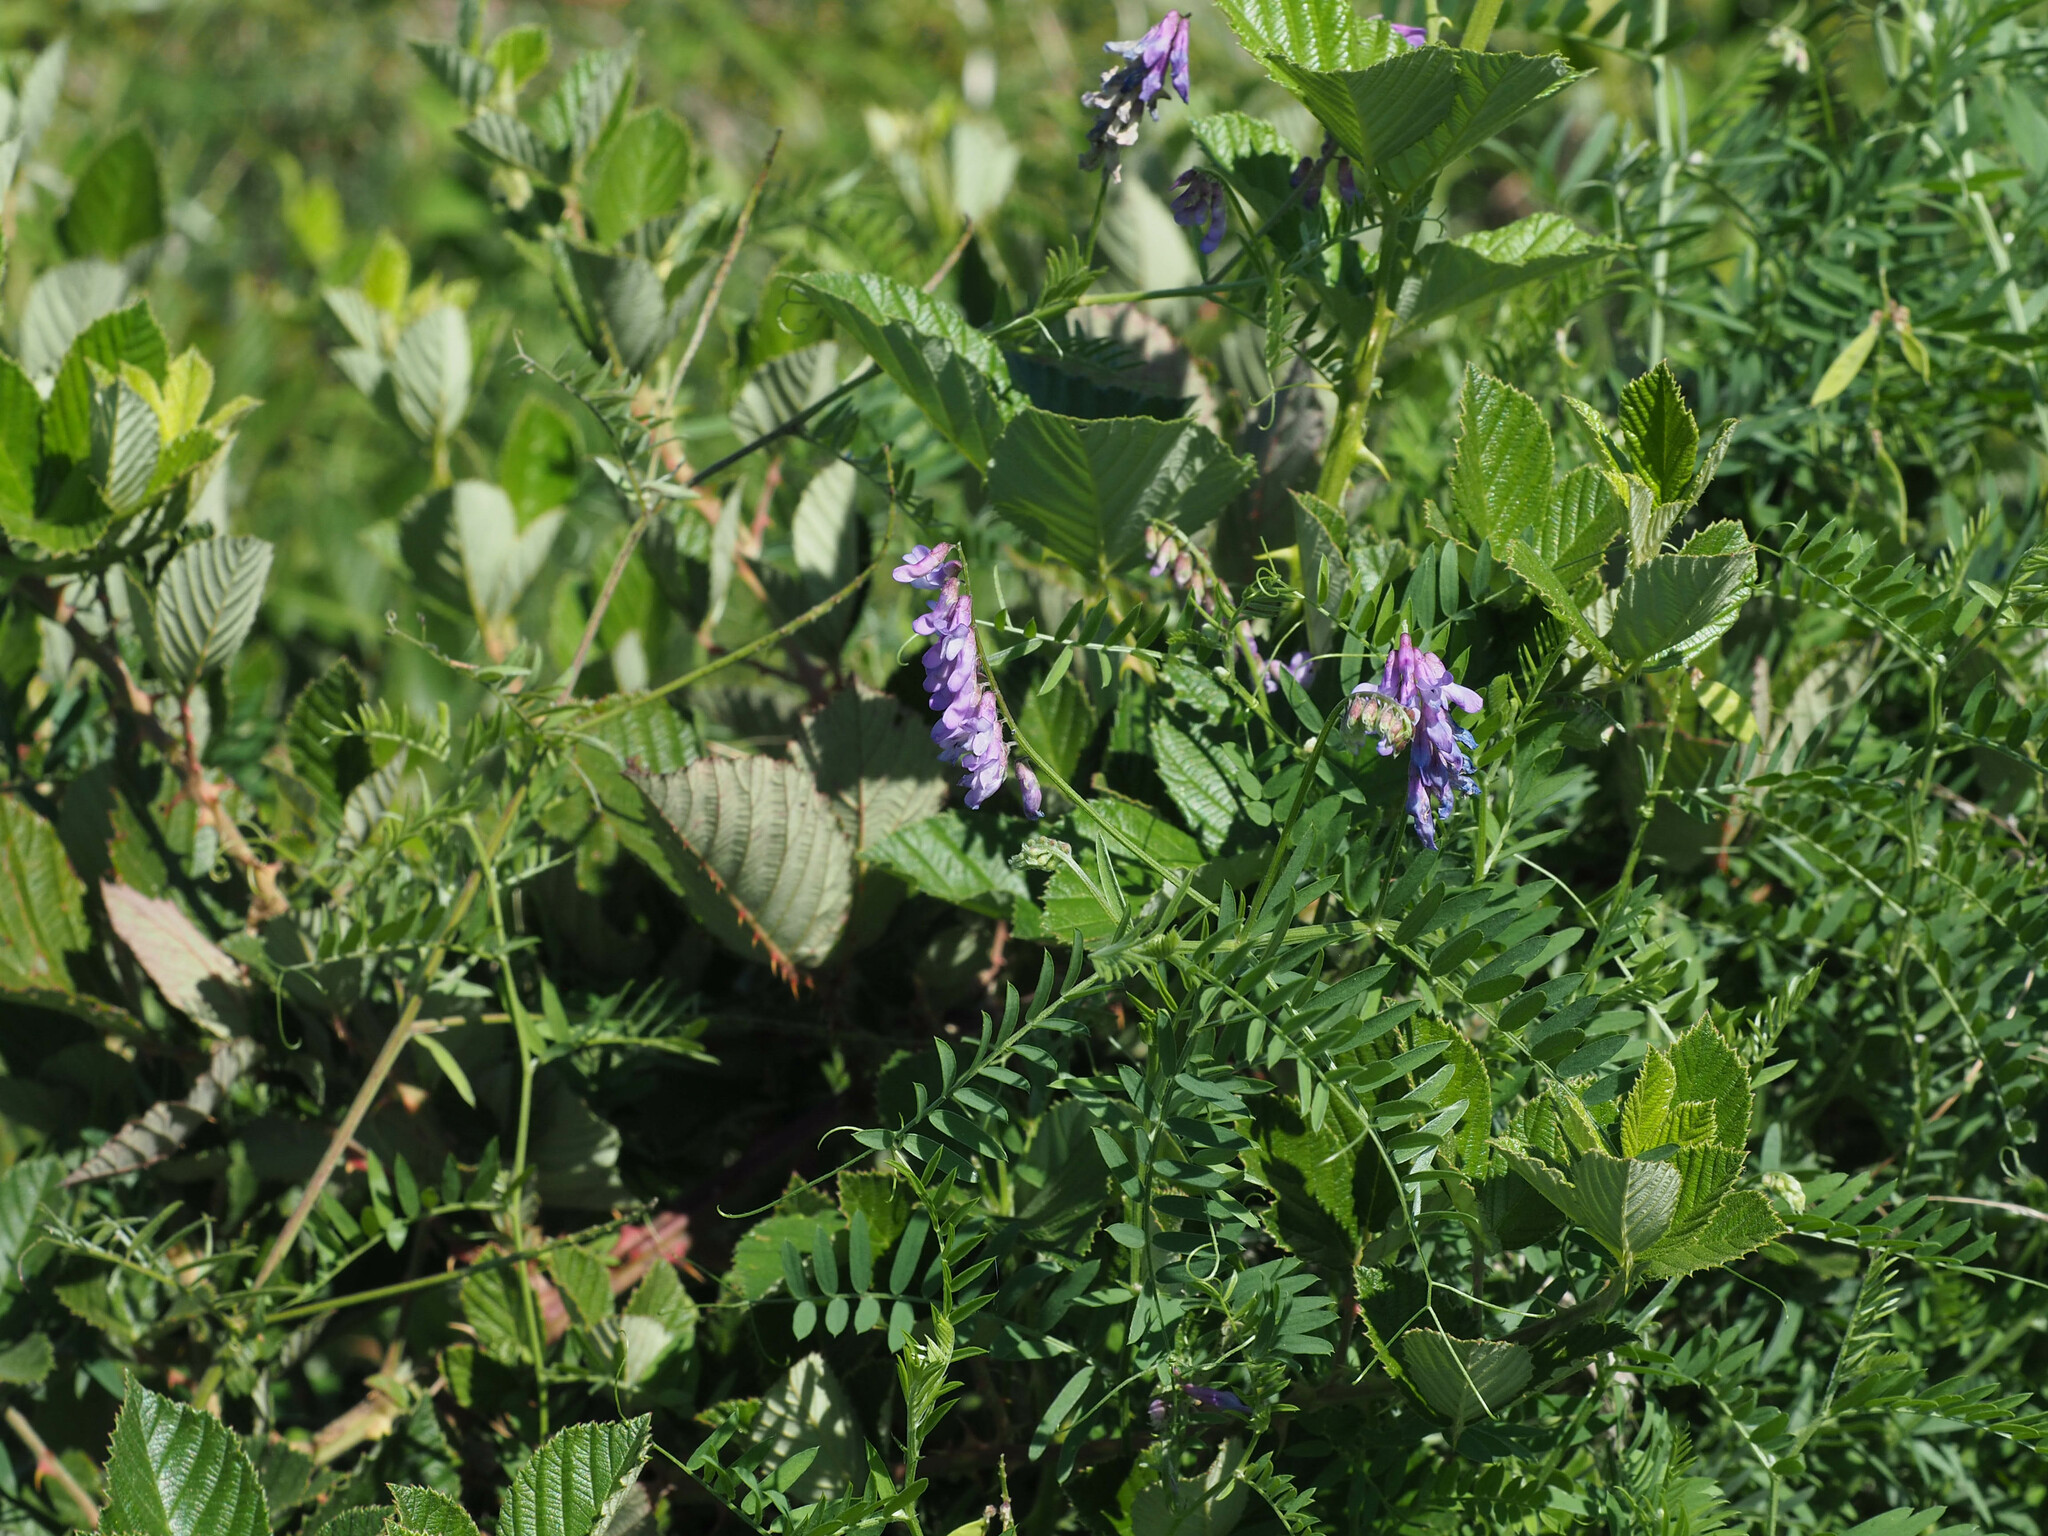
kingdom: Plantae
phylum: Tracheophyta
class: Magnoliopsida
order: Fabales
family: Fabaceae
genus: Vicia
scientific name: Vicia cracca
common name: Bird vetch
